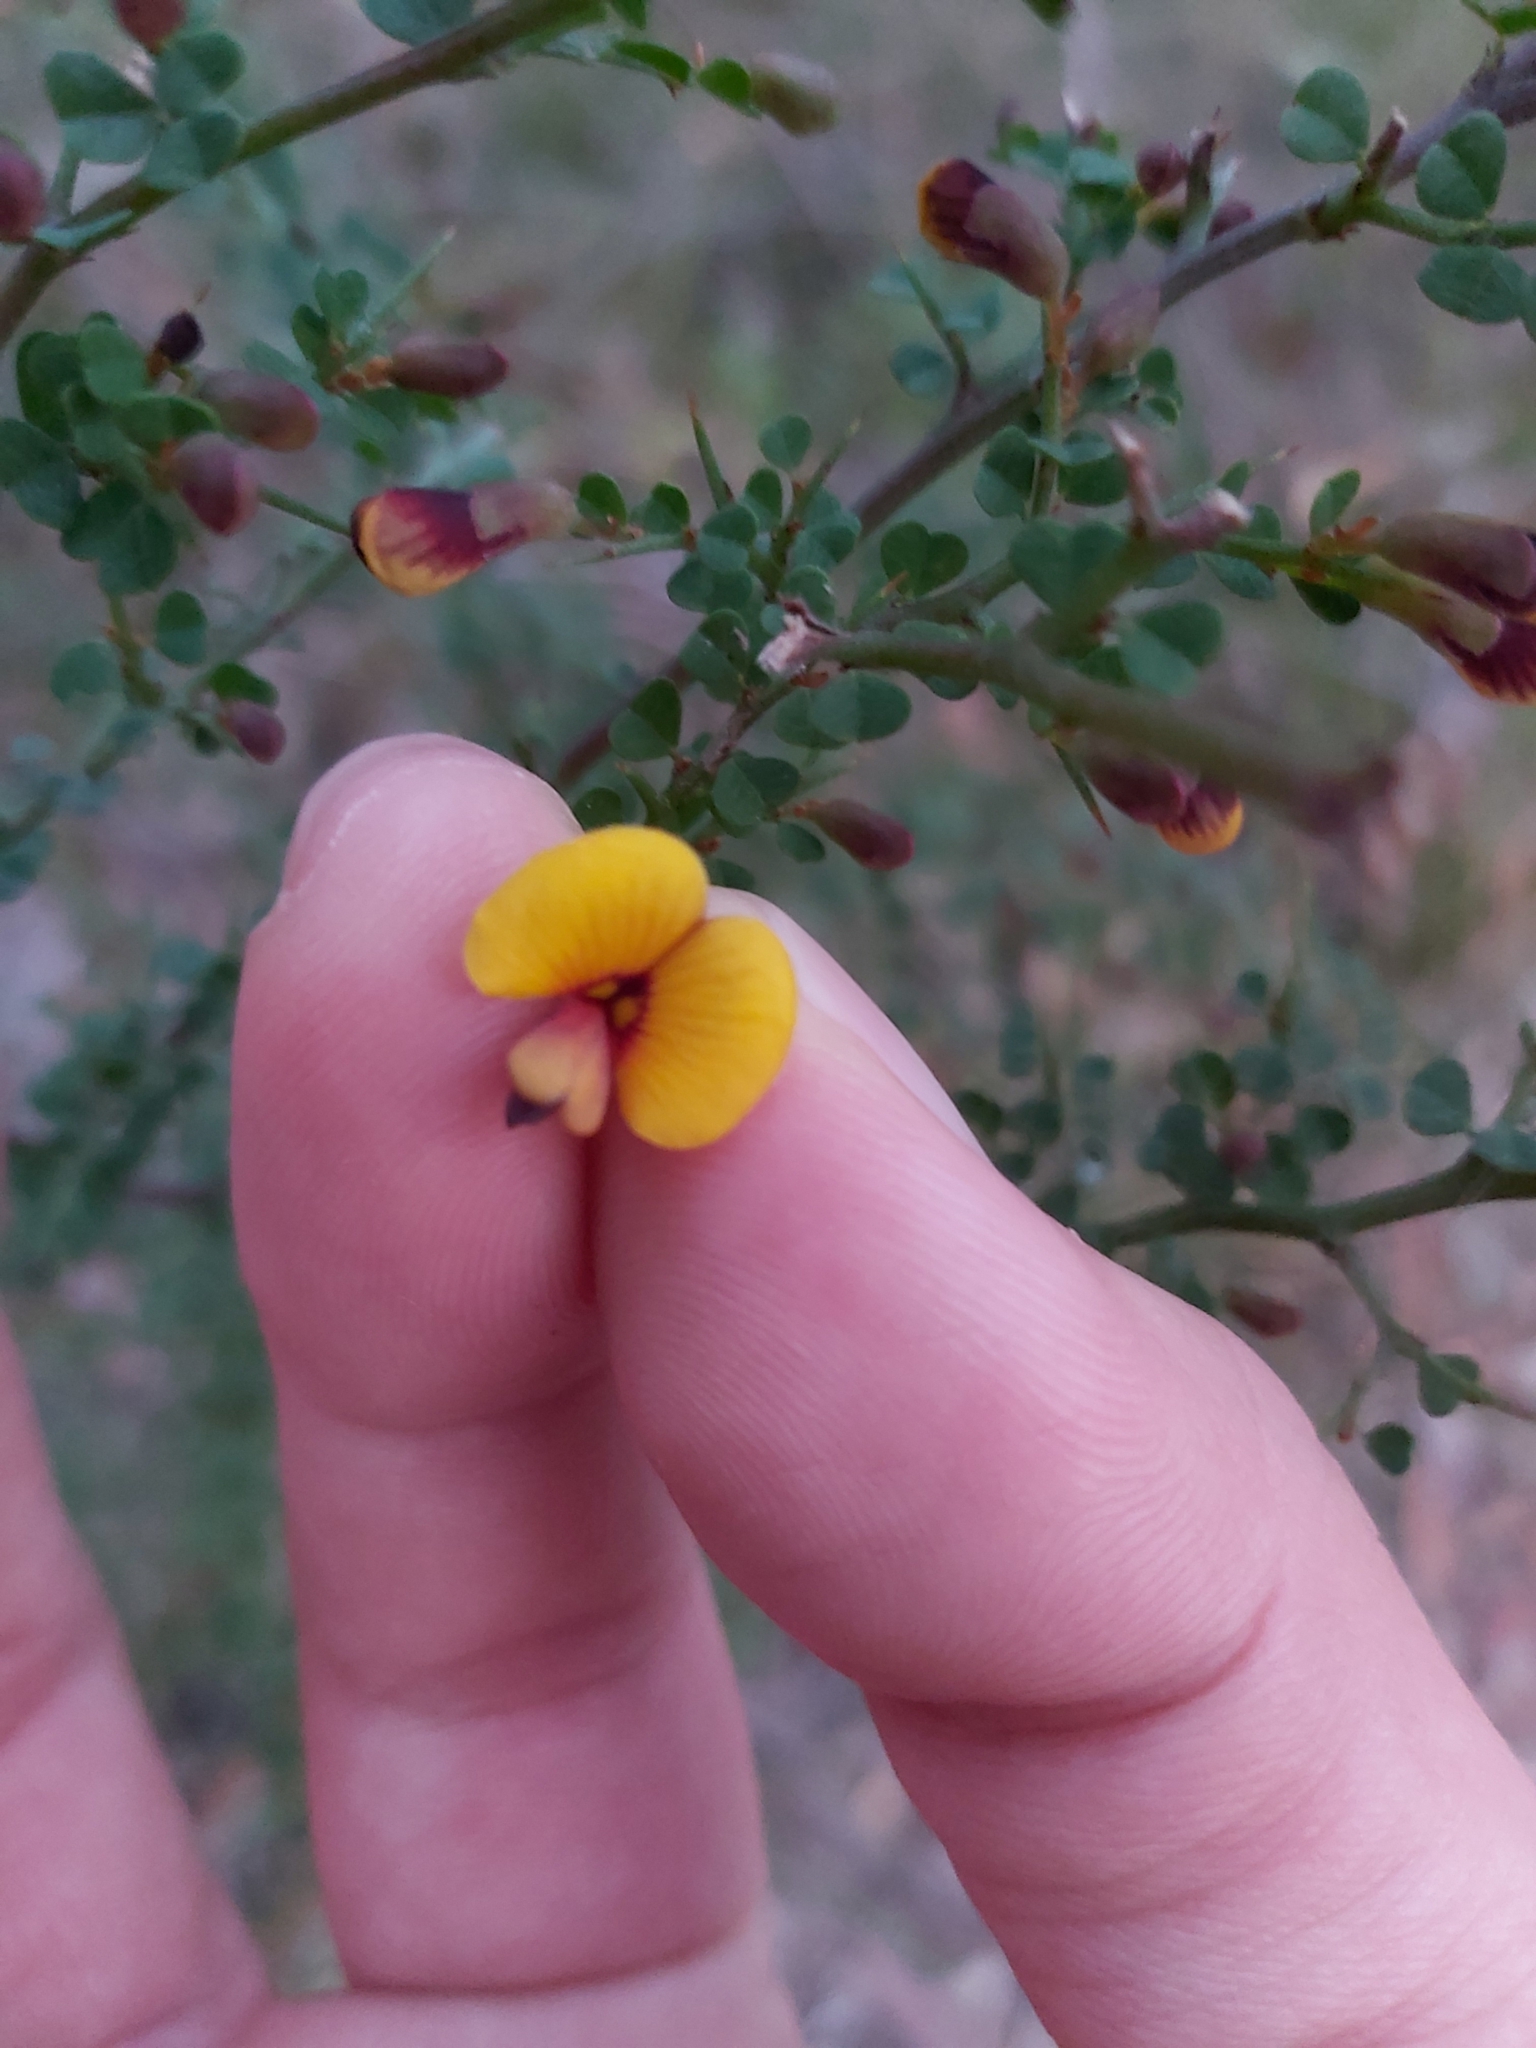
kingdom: Plantae
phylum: Tracheophyta
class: Magnoliopsida
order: Fabales
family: Fabaceae
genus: Bossiaea
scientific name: Bossiaea obcordata
